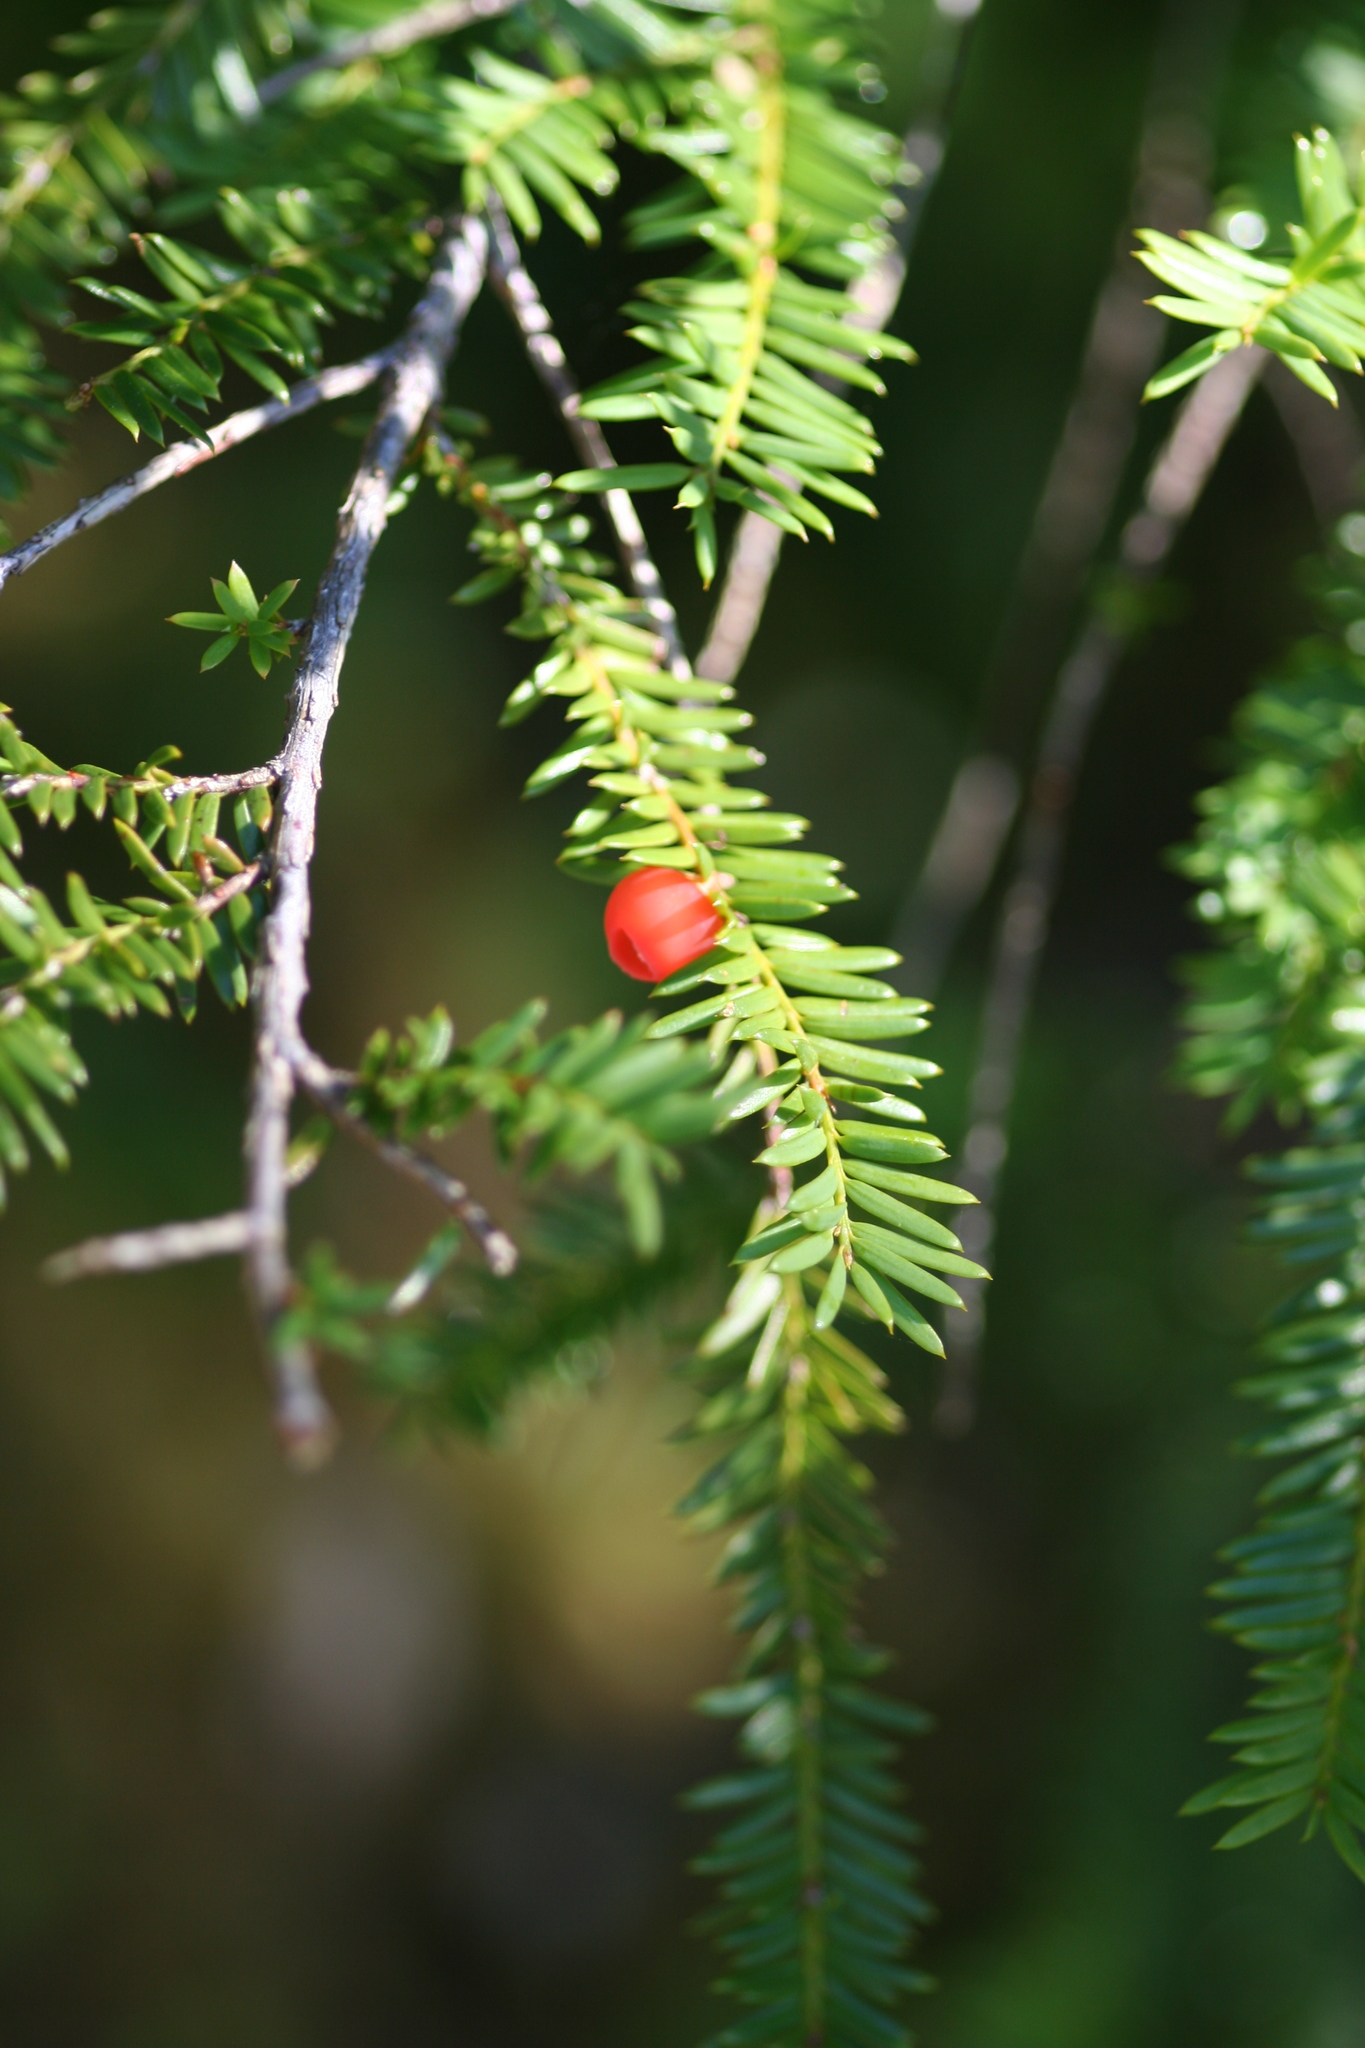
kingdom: Plantae
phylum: Tracheophyta
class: Pinopsida
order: Pinales
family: Taxaceae
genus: Taxus
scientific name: Taxus brevifolia
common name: Pacific yew
